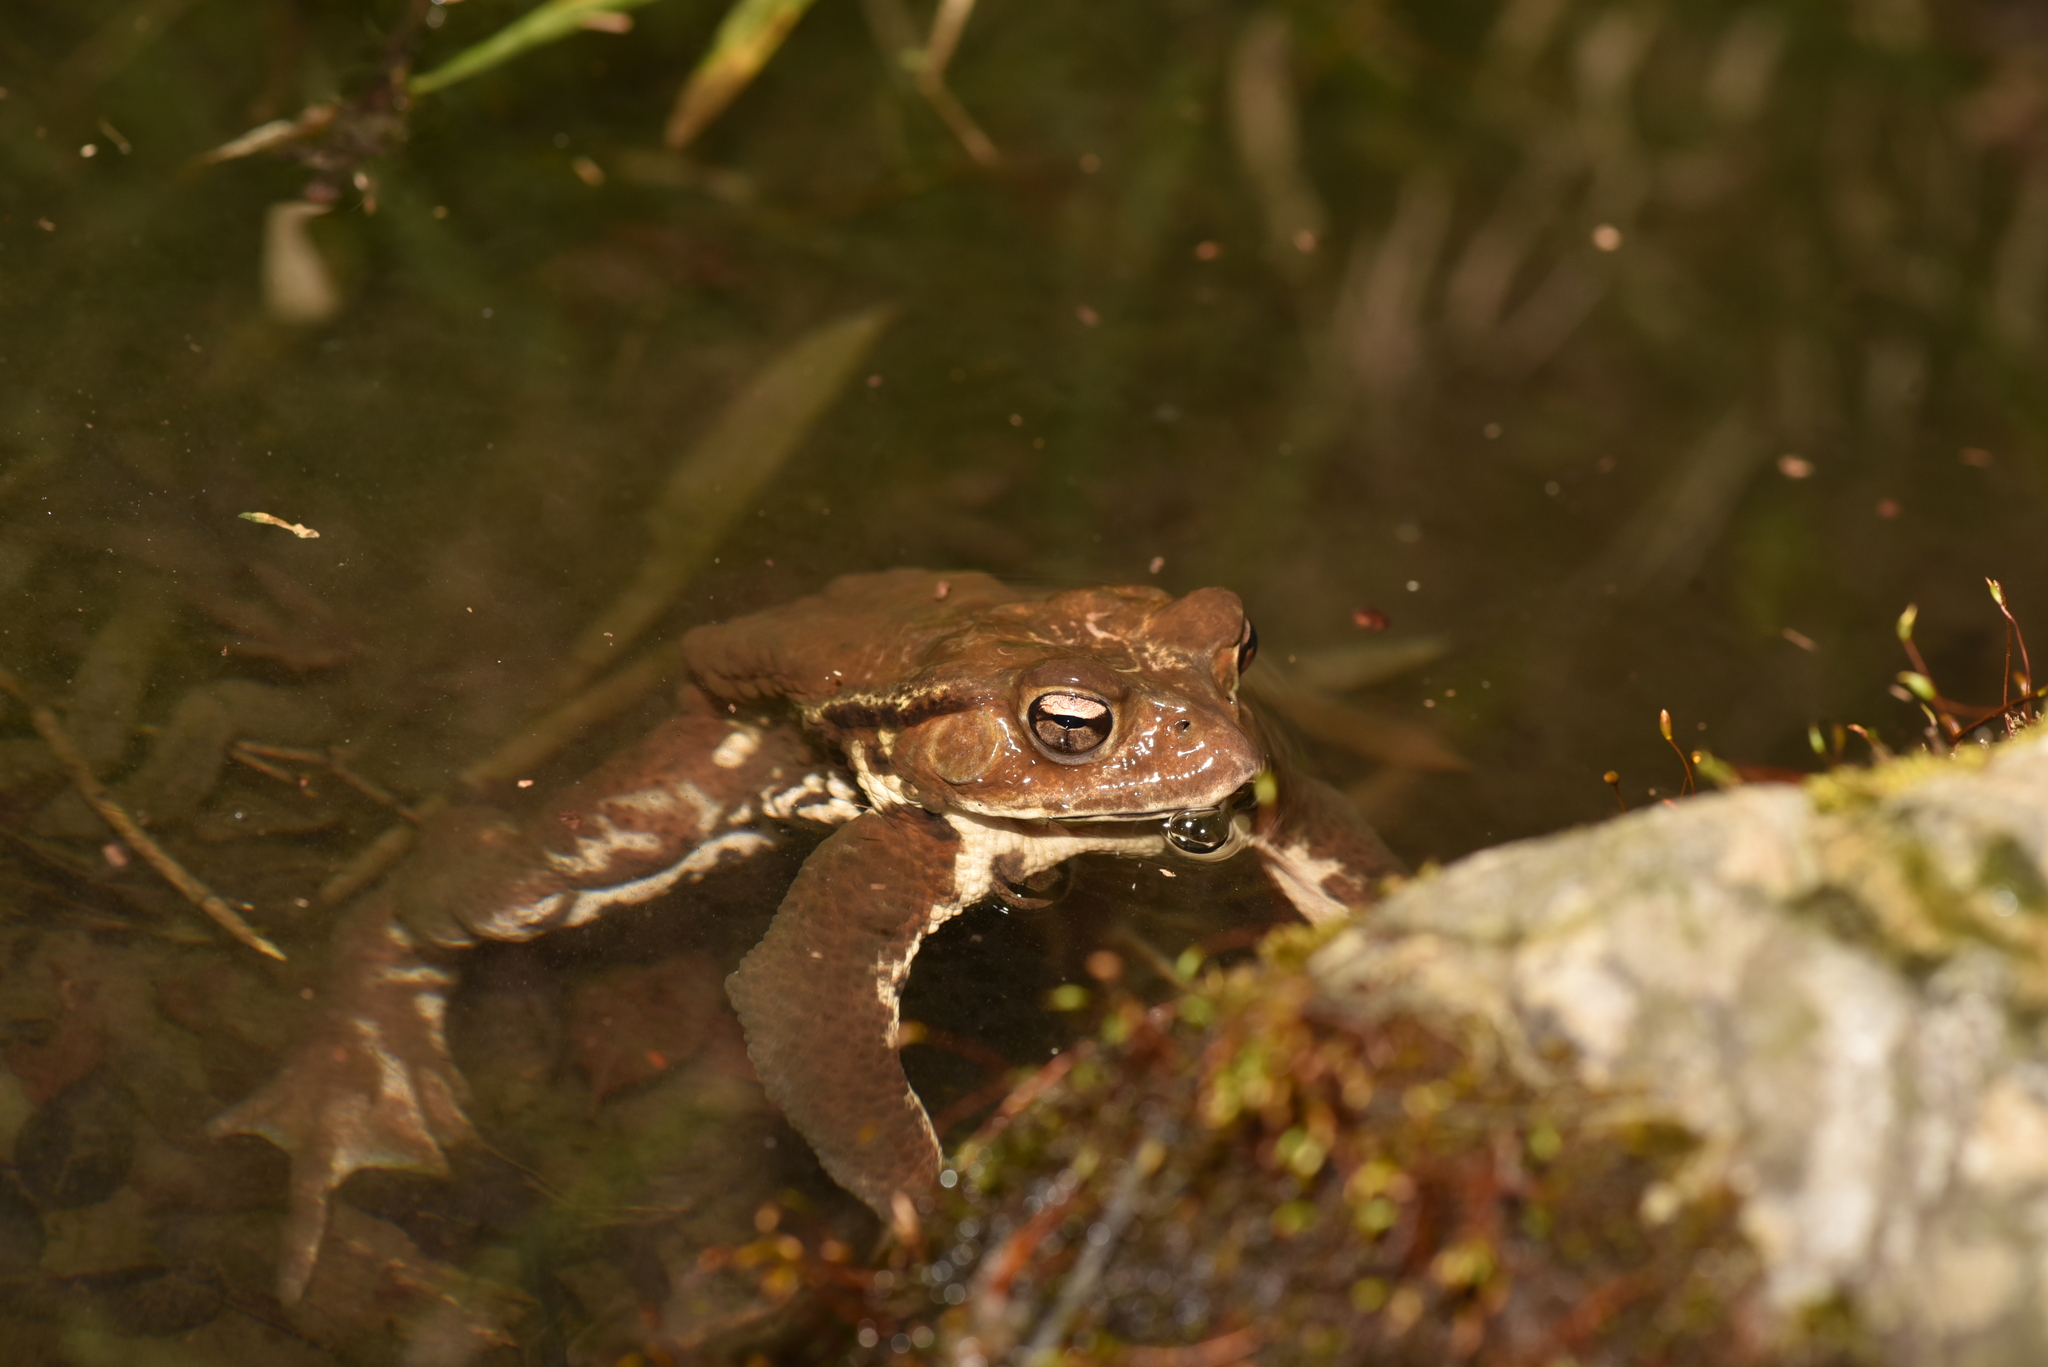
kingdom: Animalia
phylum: Chordata
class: Amphibia
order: Anura
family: Bufonidae
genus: Bufo
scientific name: Bufo japonicus
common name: Japanese common toad
